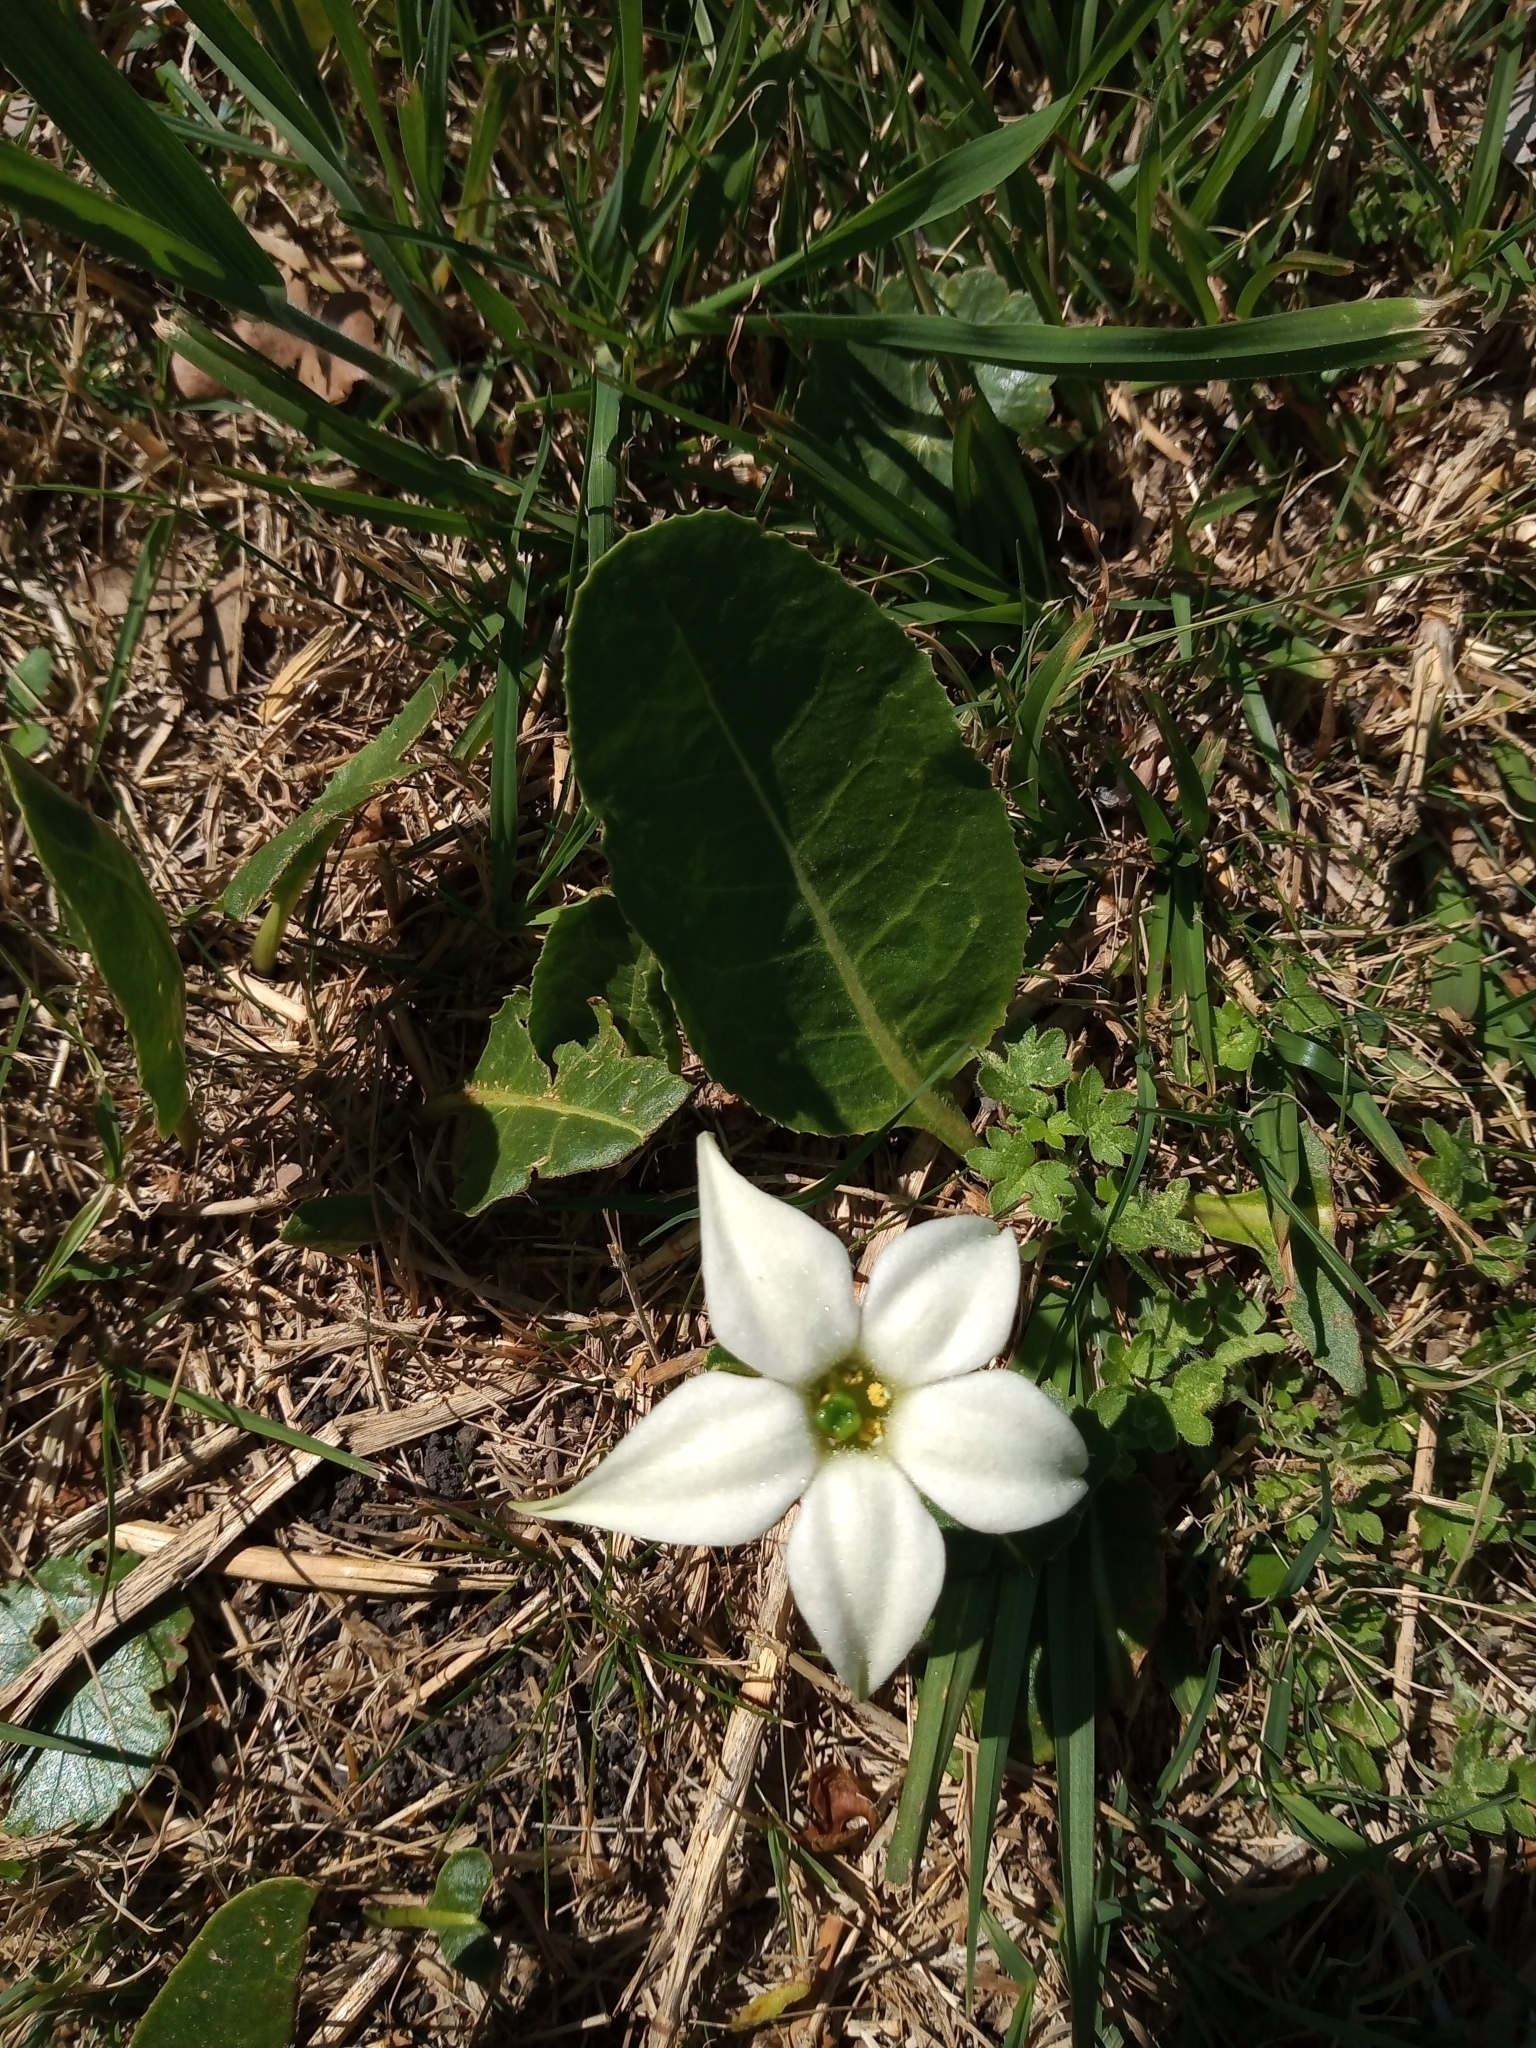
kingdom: Plantae
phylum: Tracheophyta
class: Magnoliopsida
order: Solanales
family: Solanaceae
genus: Jaborosa
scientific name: Jaborosa integrifolia
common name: Springblossom
